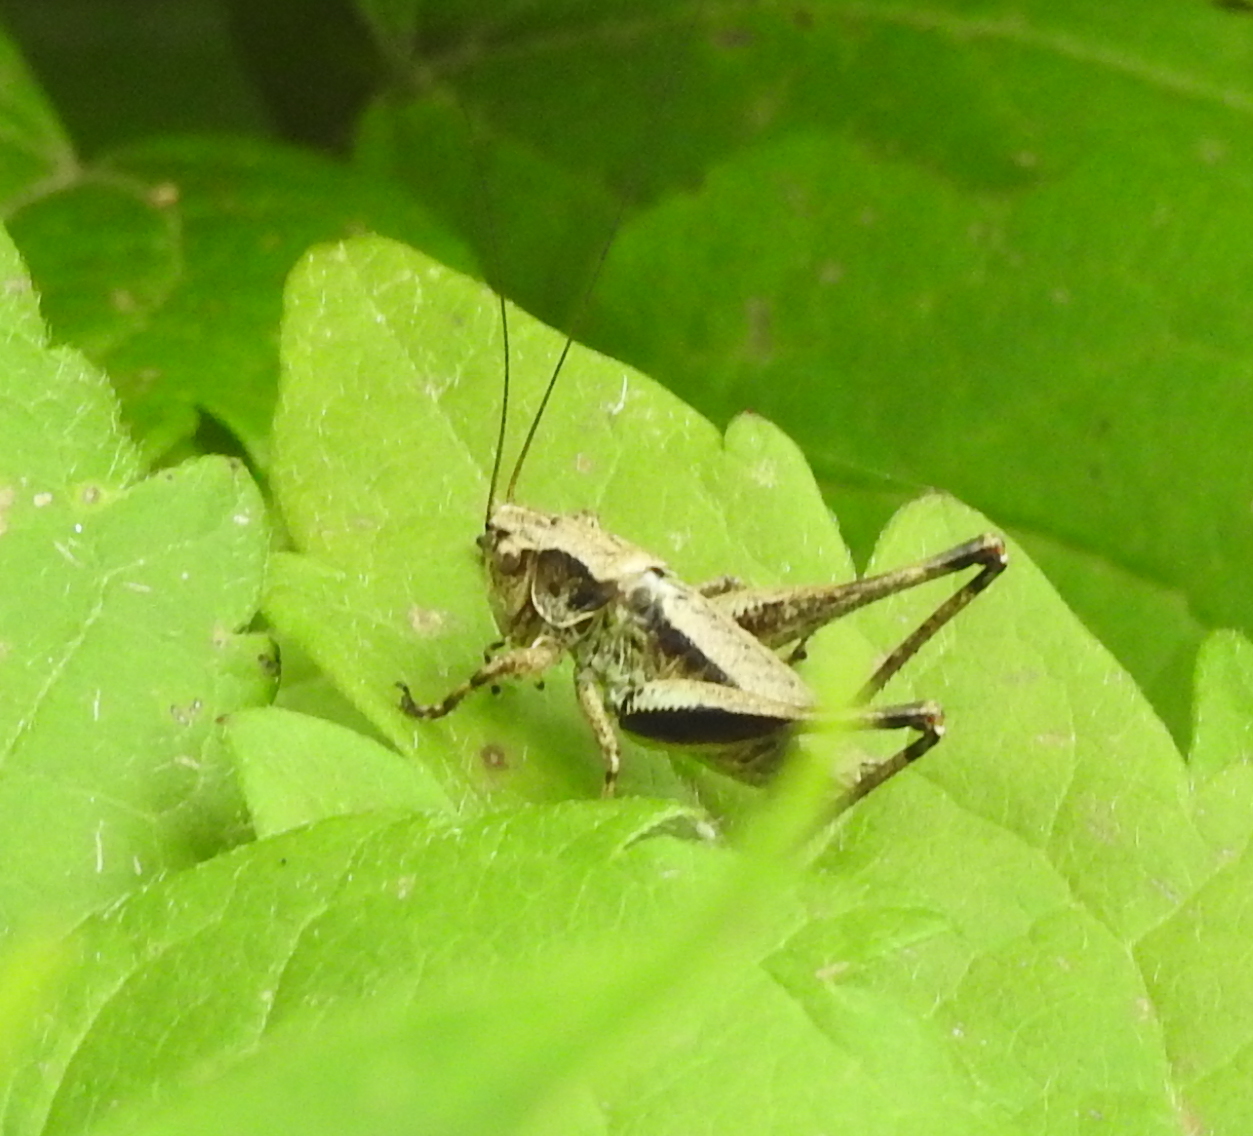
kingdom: Animalia
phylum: Arthropoda
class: Insecta
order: Orthoptera
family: Tettigoniidae
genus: Pholidoptera
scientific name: Pholidoptera griseoaptera
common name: Dark bush-cricket
